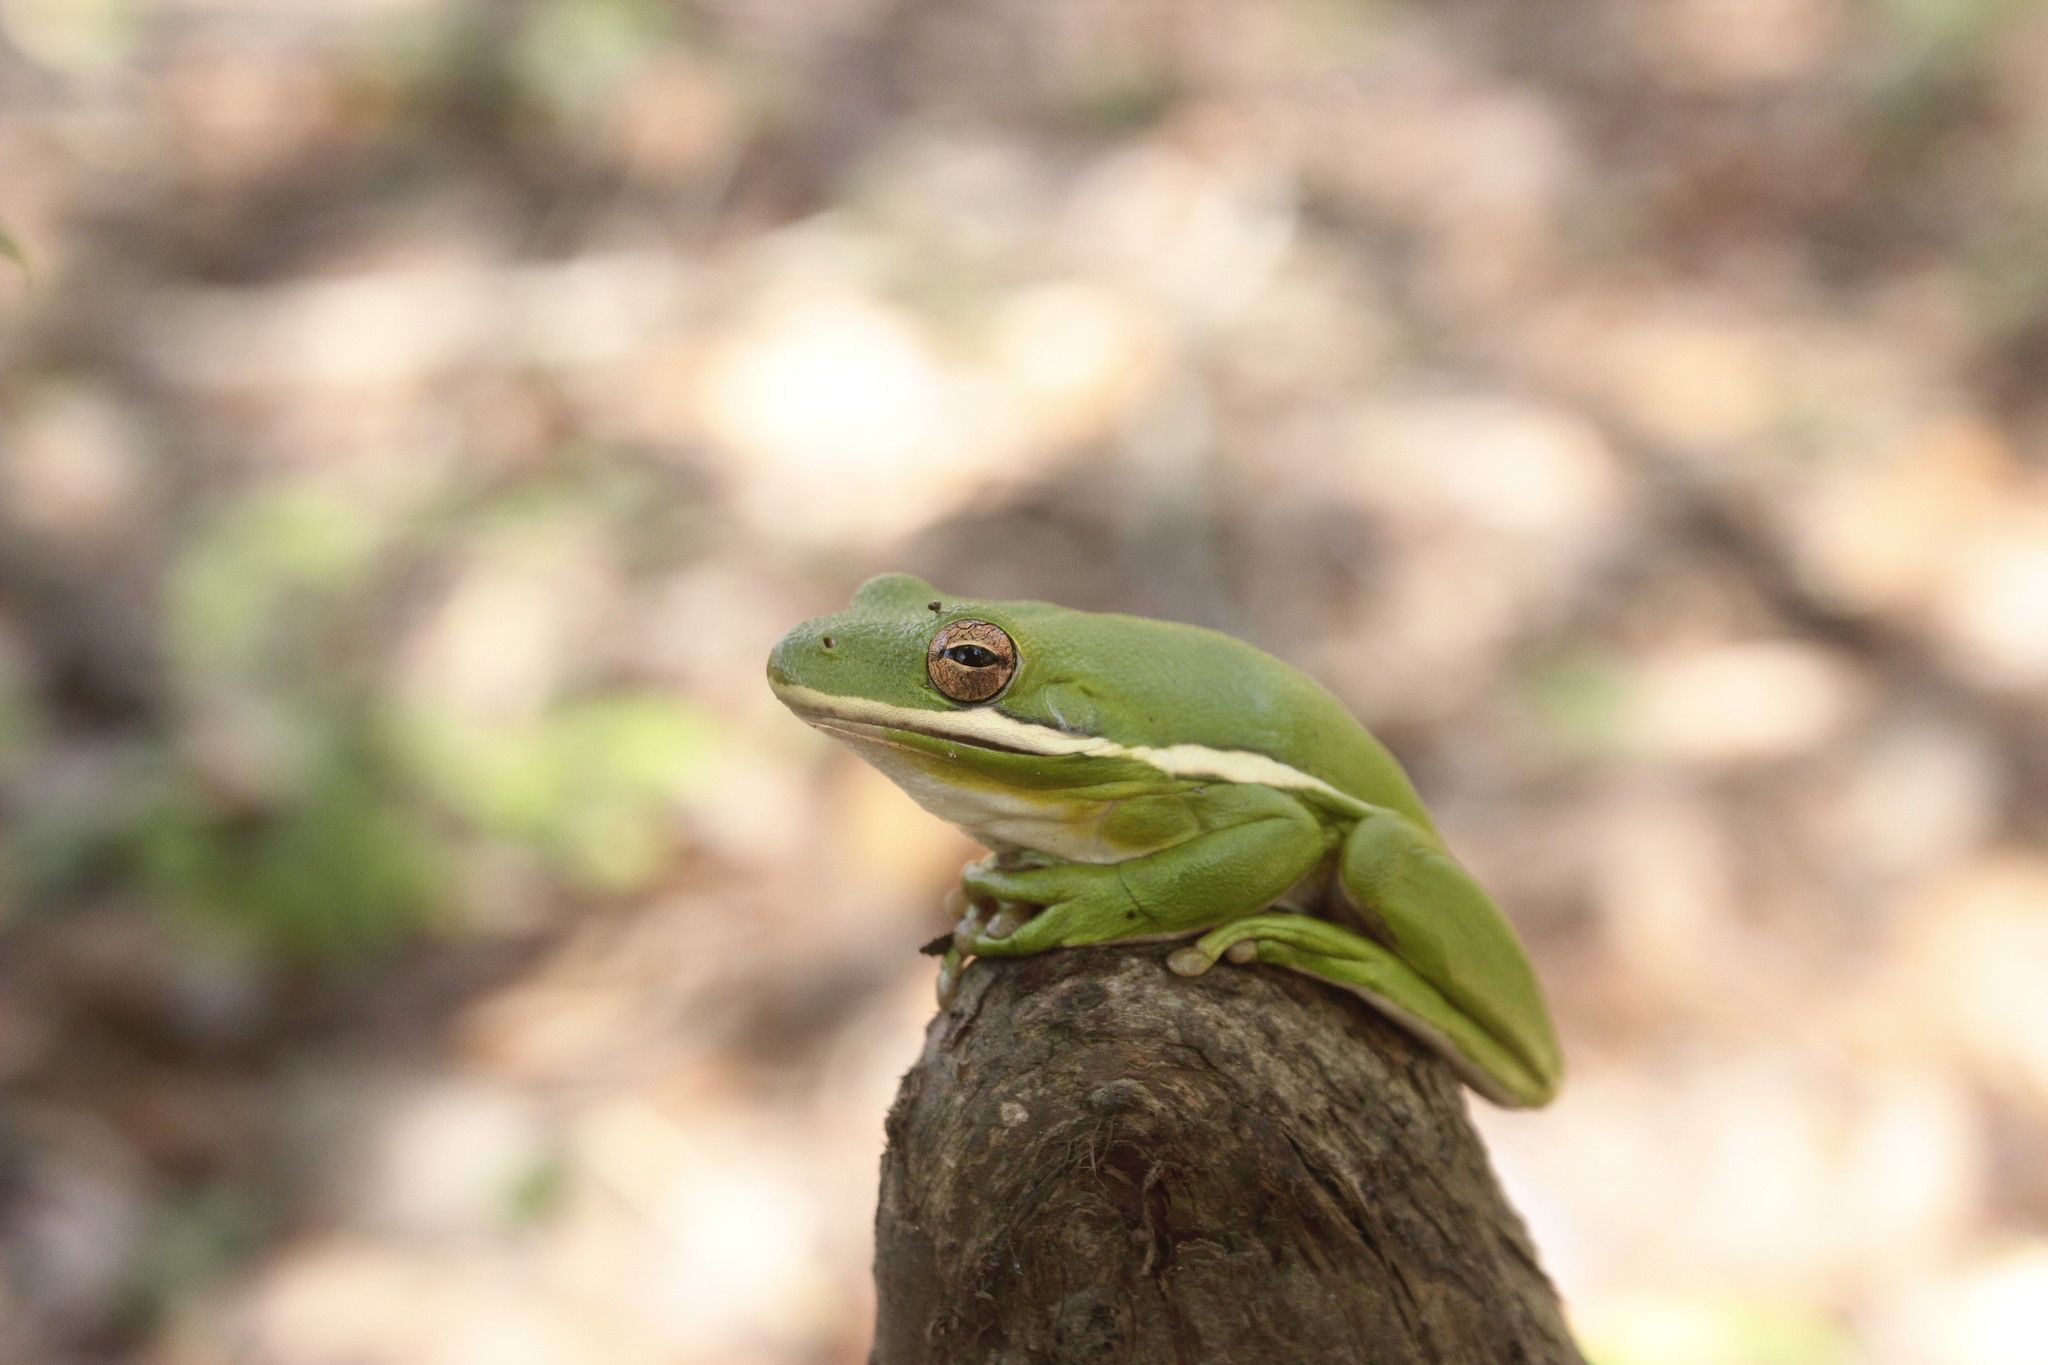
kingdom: Animalia
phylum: Chordata
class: Amphibia
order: Anura
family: Hylidae
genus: Dryophytes
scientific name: Dryophytes cinereus
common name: Green treefrog
